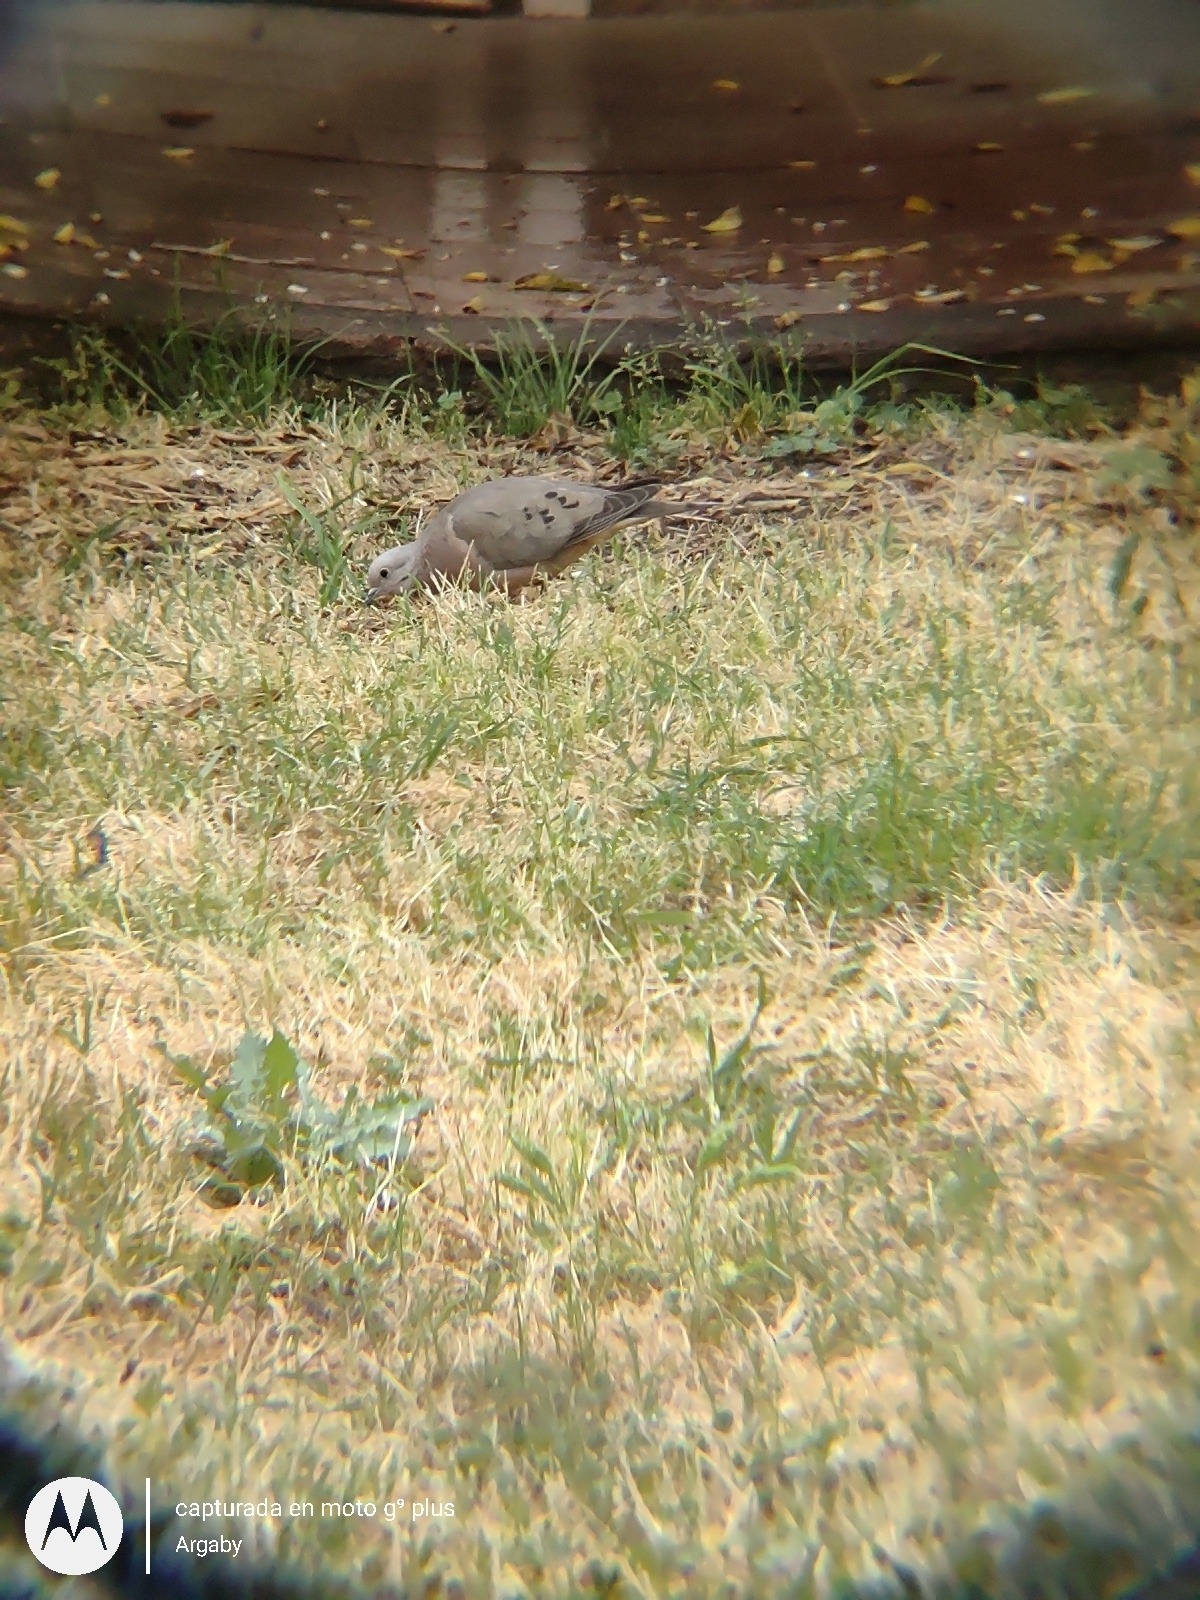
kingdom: Animalia
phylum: Chordata
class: Aves
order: Columbiformes
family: Columbidae
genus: Zenaida
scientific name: Zenaida auriculata
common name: Eared dove
